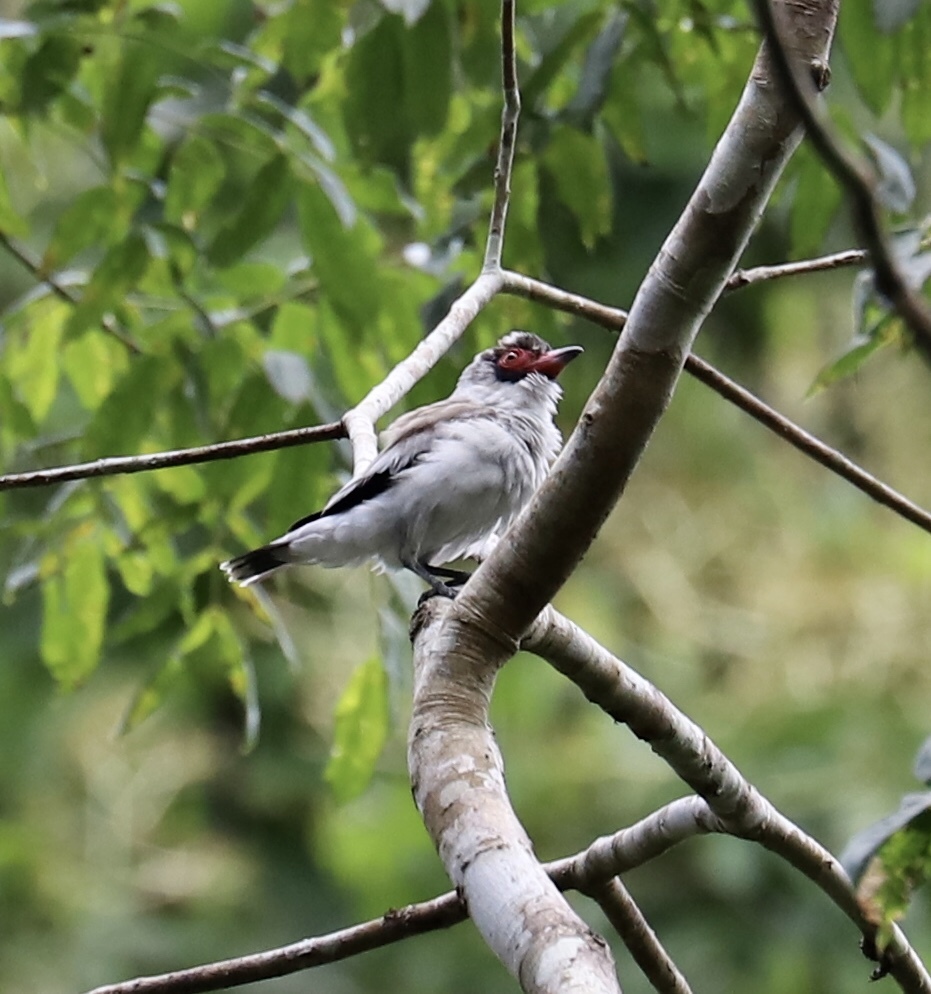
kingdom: Animalia
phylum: Chordata
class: Aves
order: Passeriformes
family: Cotingidae
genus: Tityra
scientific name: Tityra semifasciata
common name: Masked tityra
